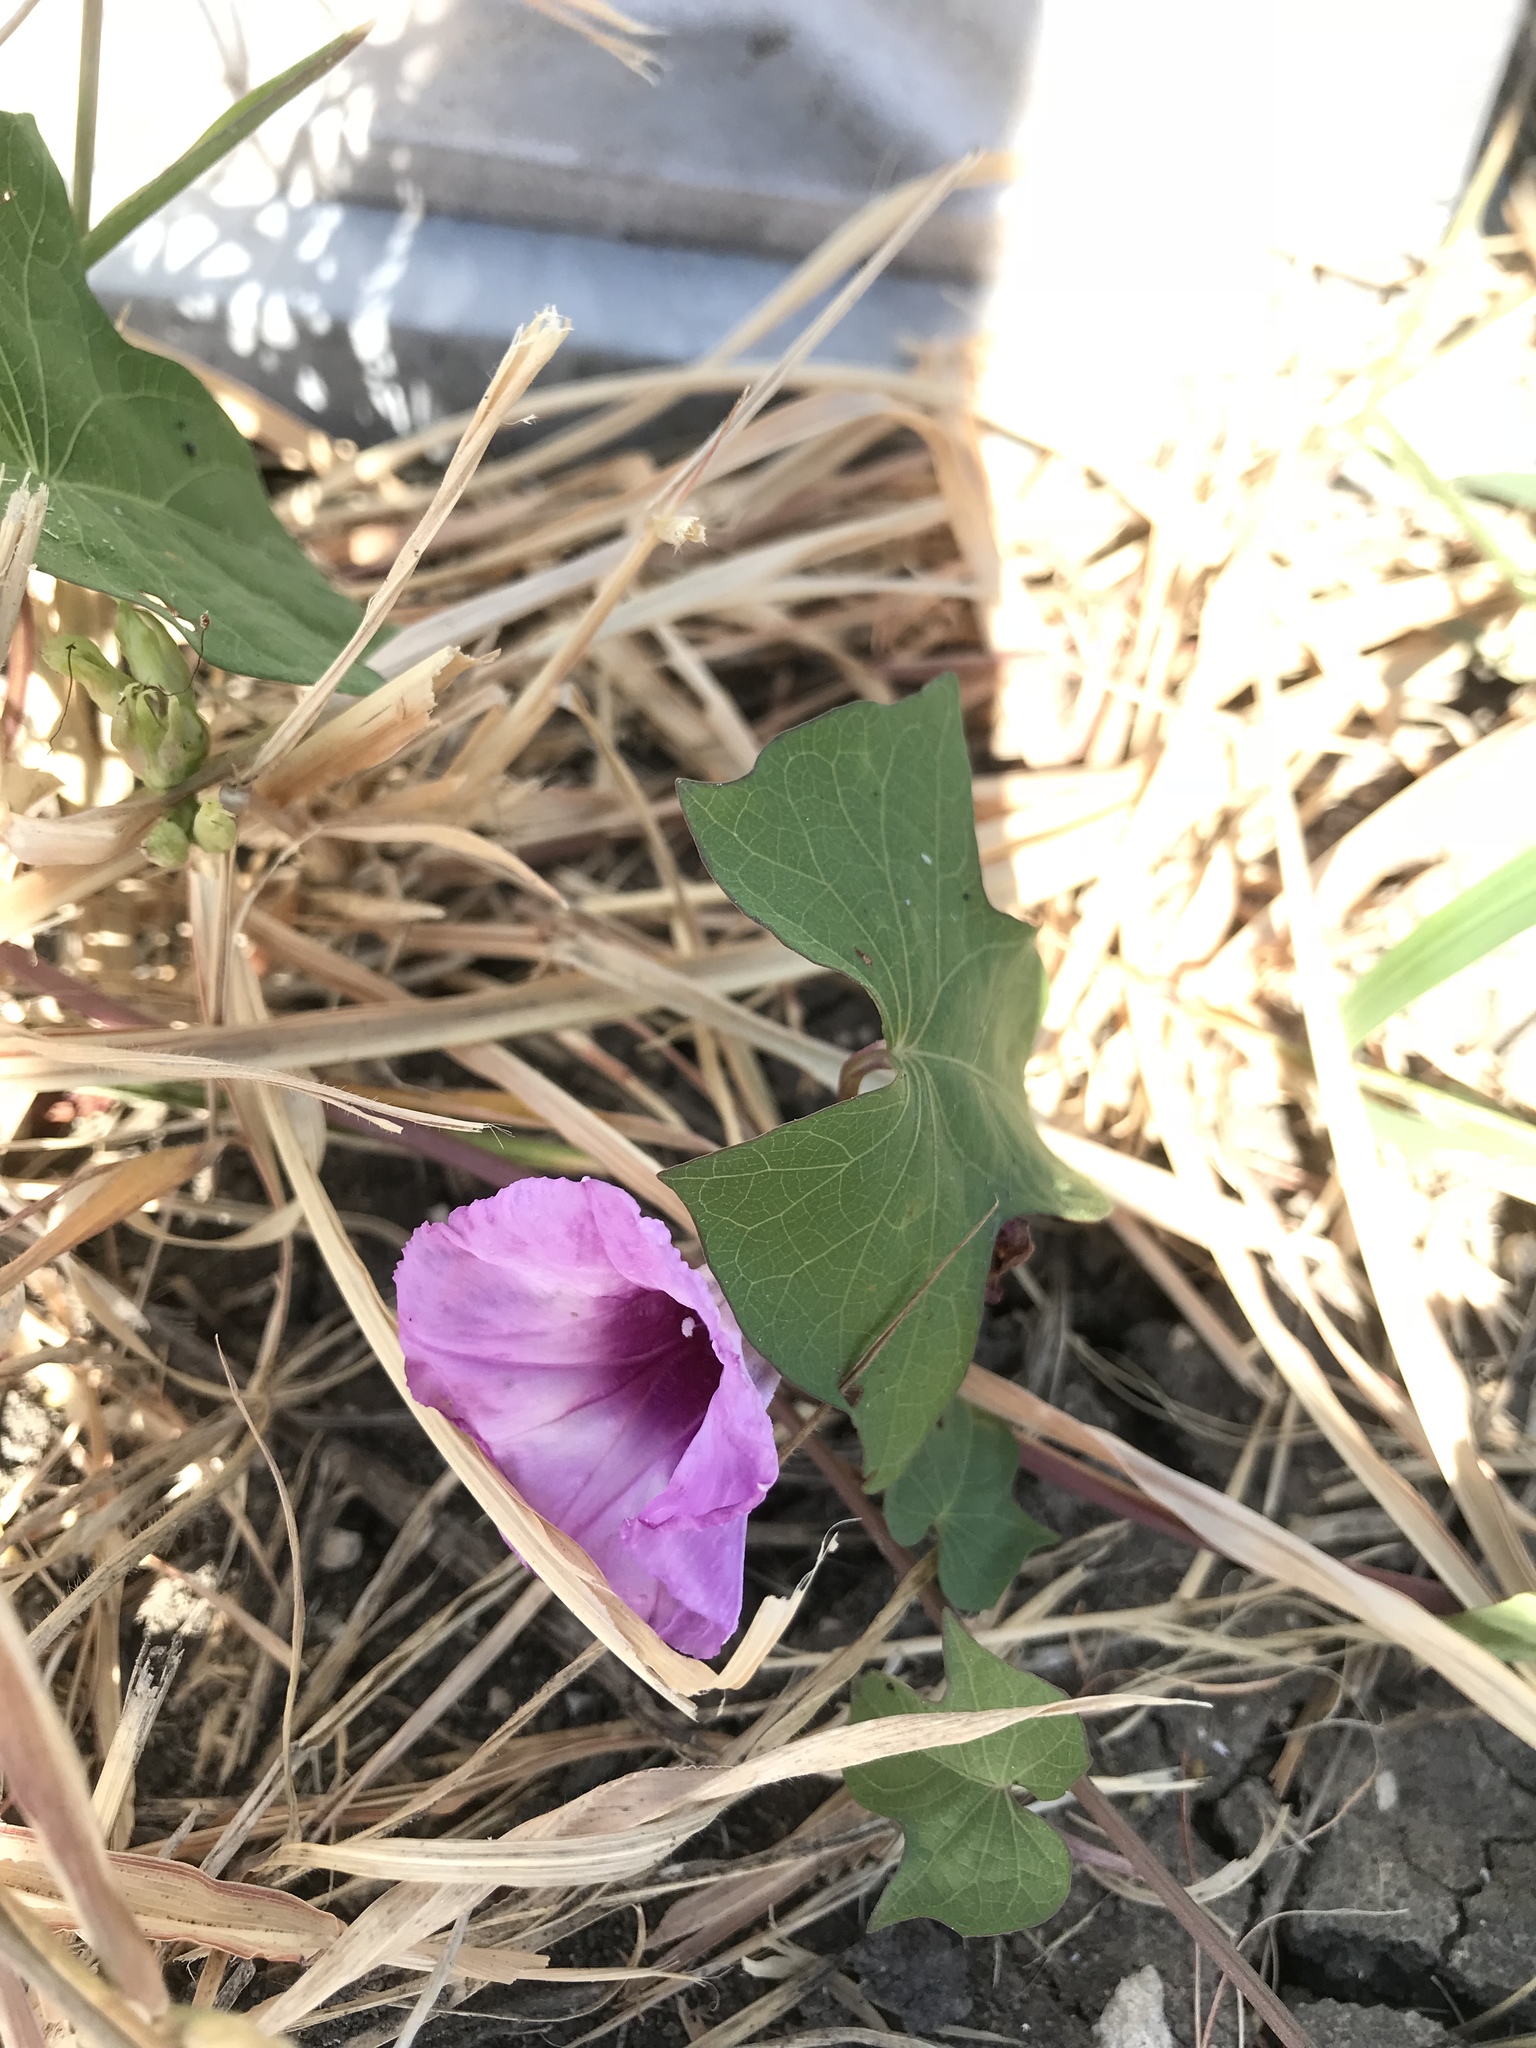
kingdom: Plantae
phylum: Tracheophyta
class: Magnoliopsida
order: Solanales
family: Convolvulaceae
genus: Ipomoea
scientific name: Ipomoea cordatotriloba
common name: Cotton morning glory
